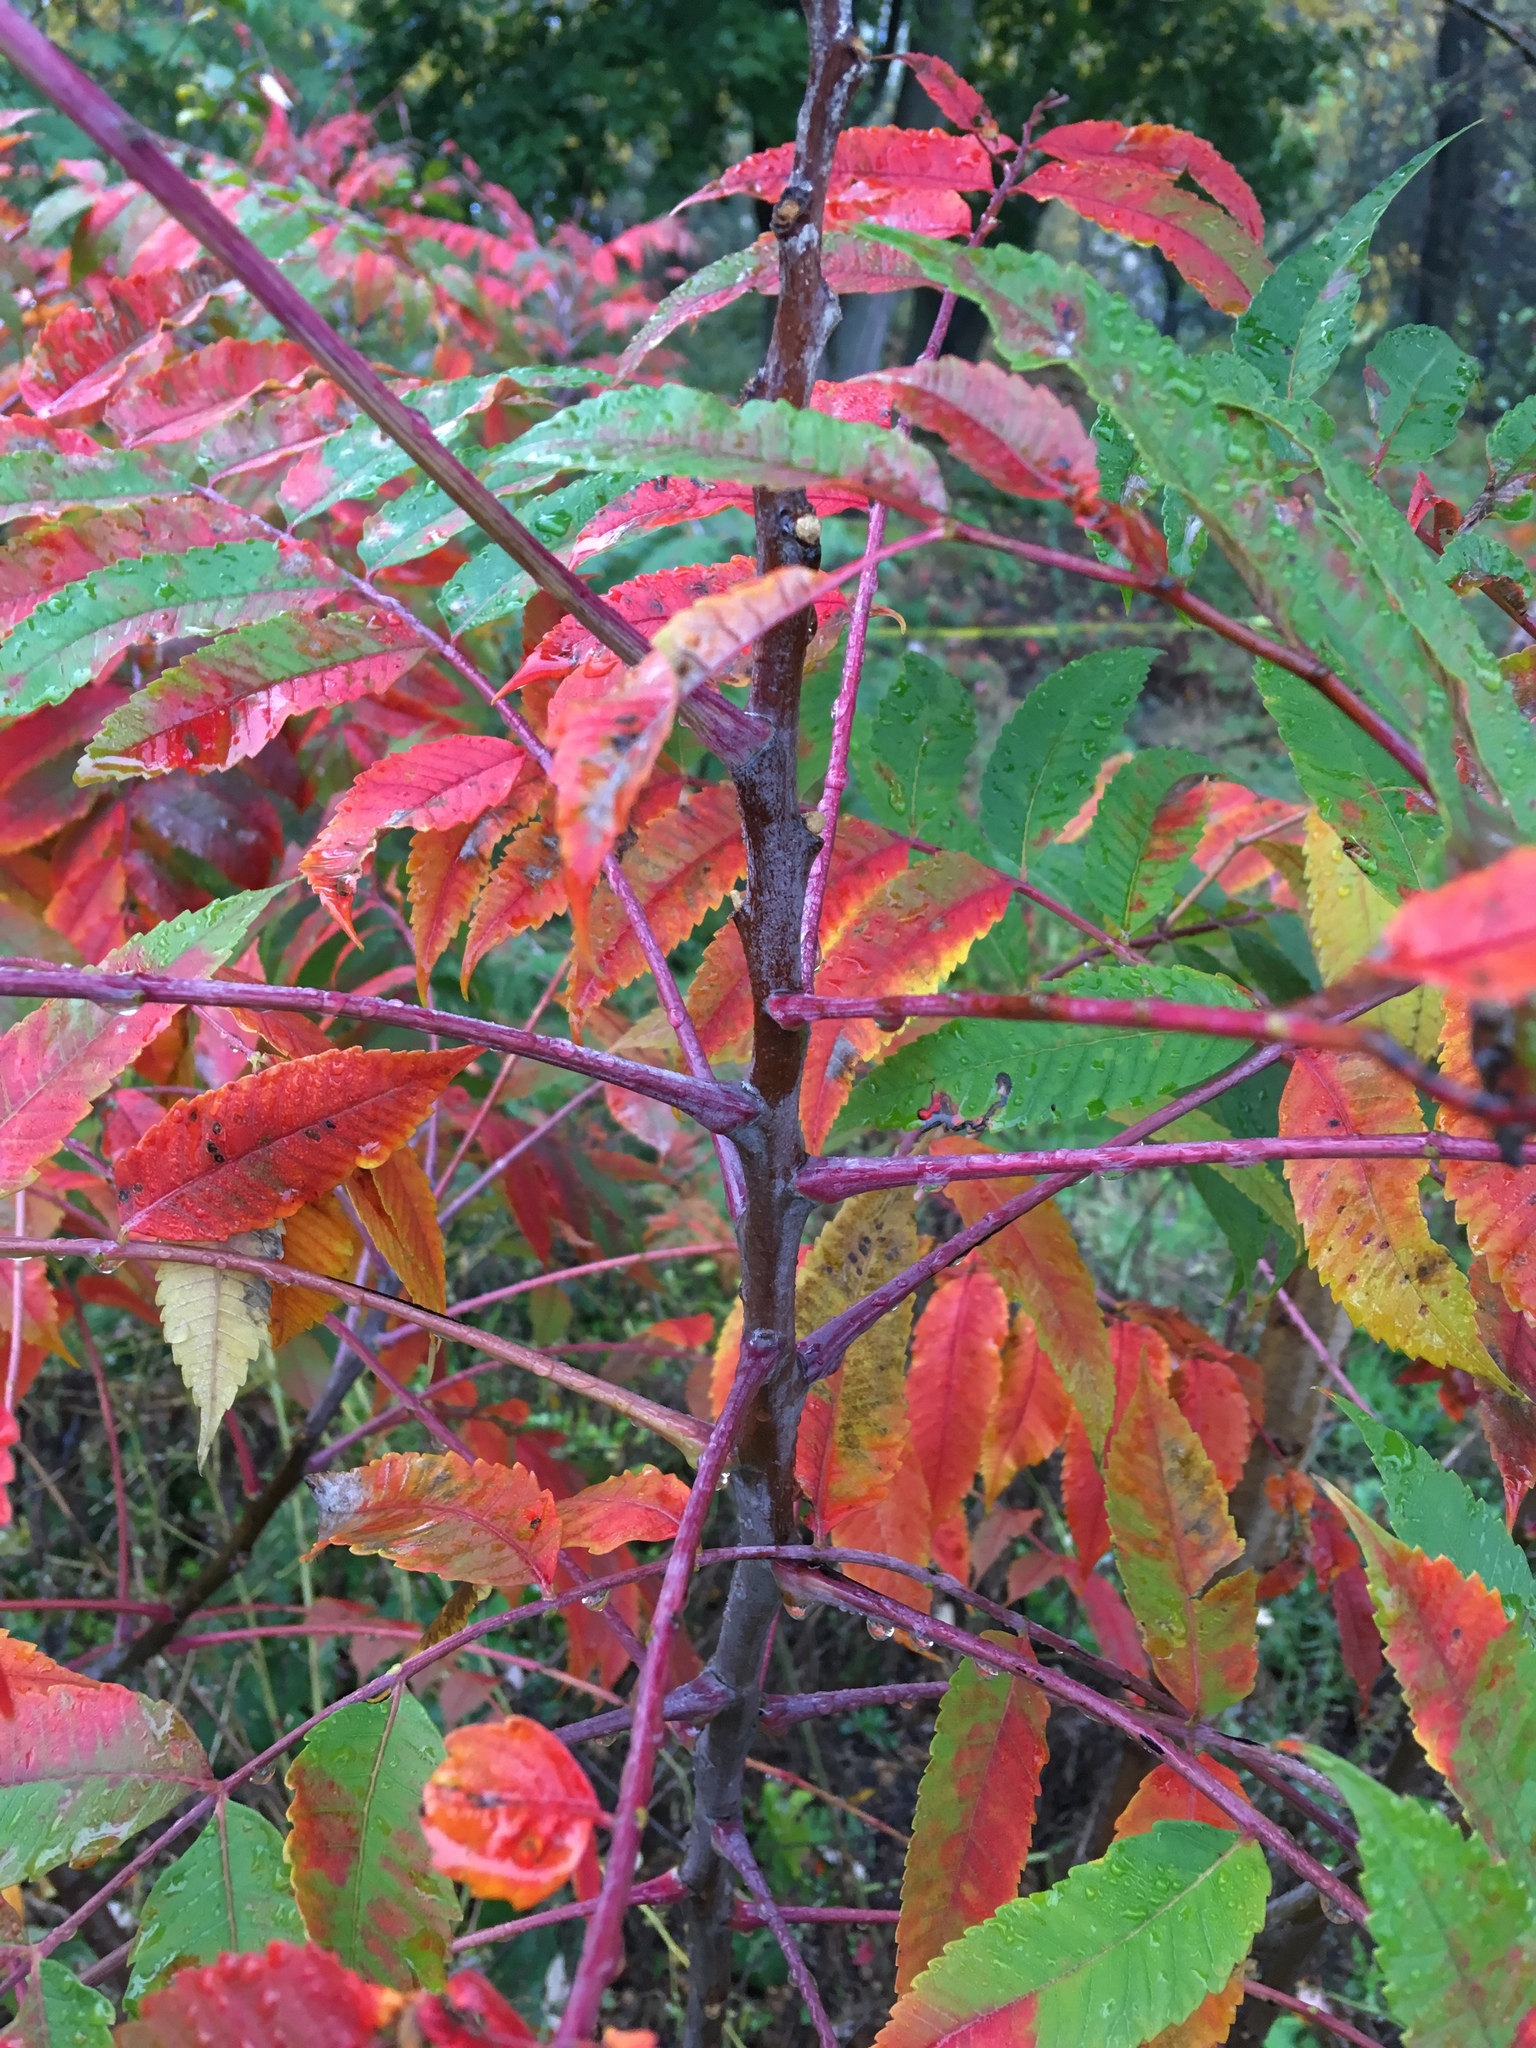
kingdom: Plantae
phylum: Tracheophyta
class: Magnoliopsida
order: Sapindales
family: Anacardiaceae
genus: Rhus
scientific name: Rhus glabra
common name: Scarlet sumac
